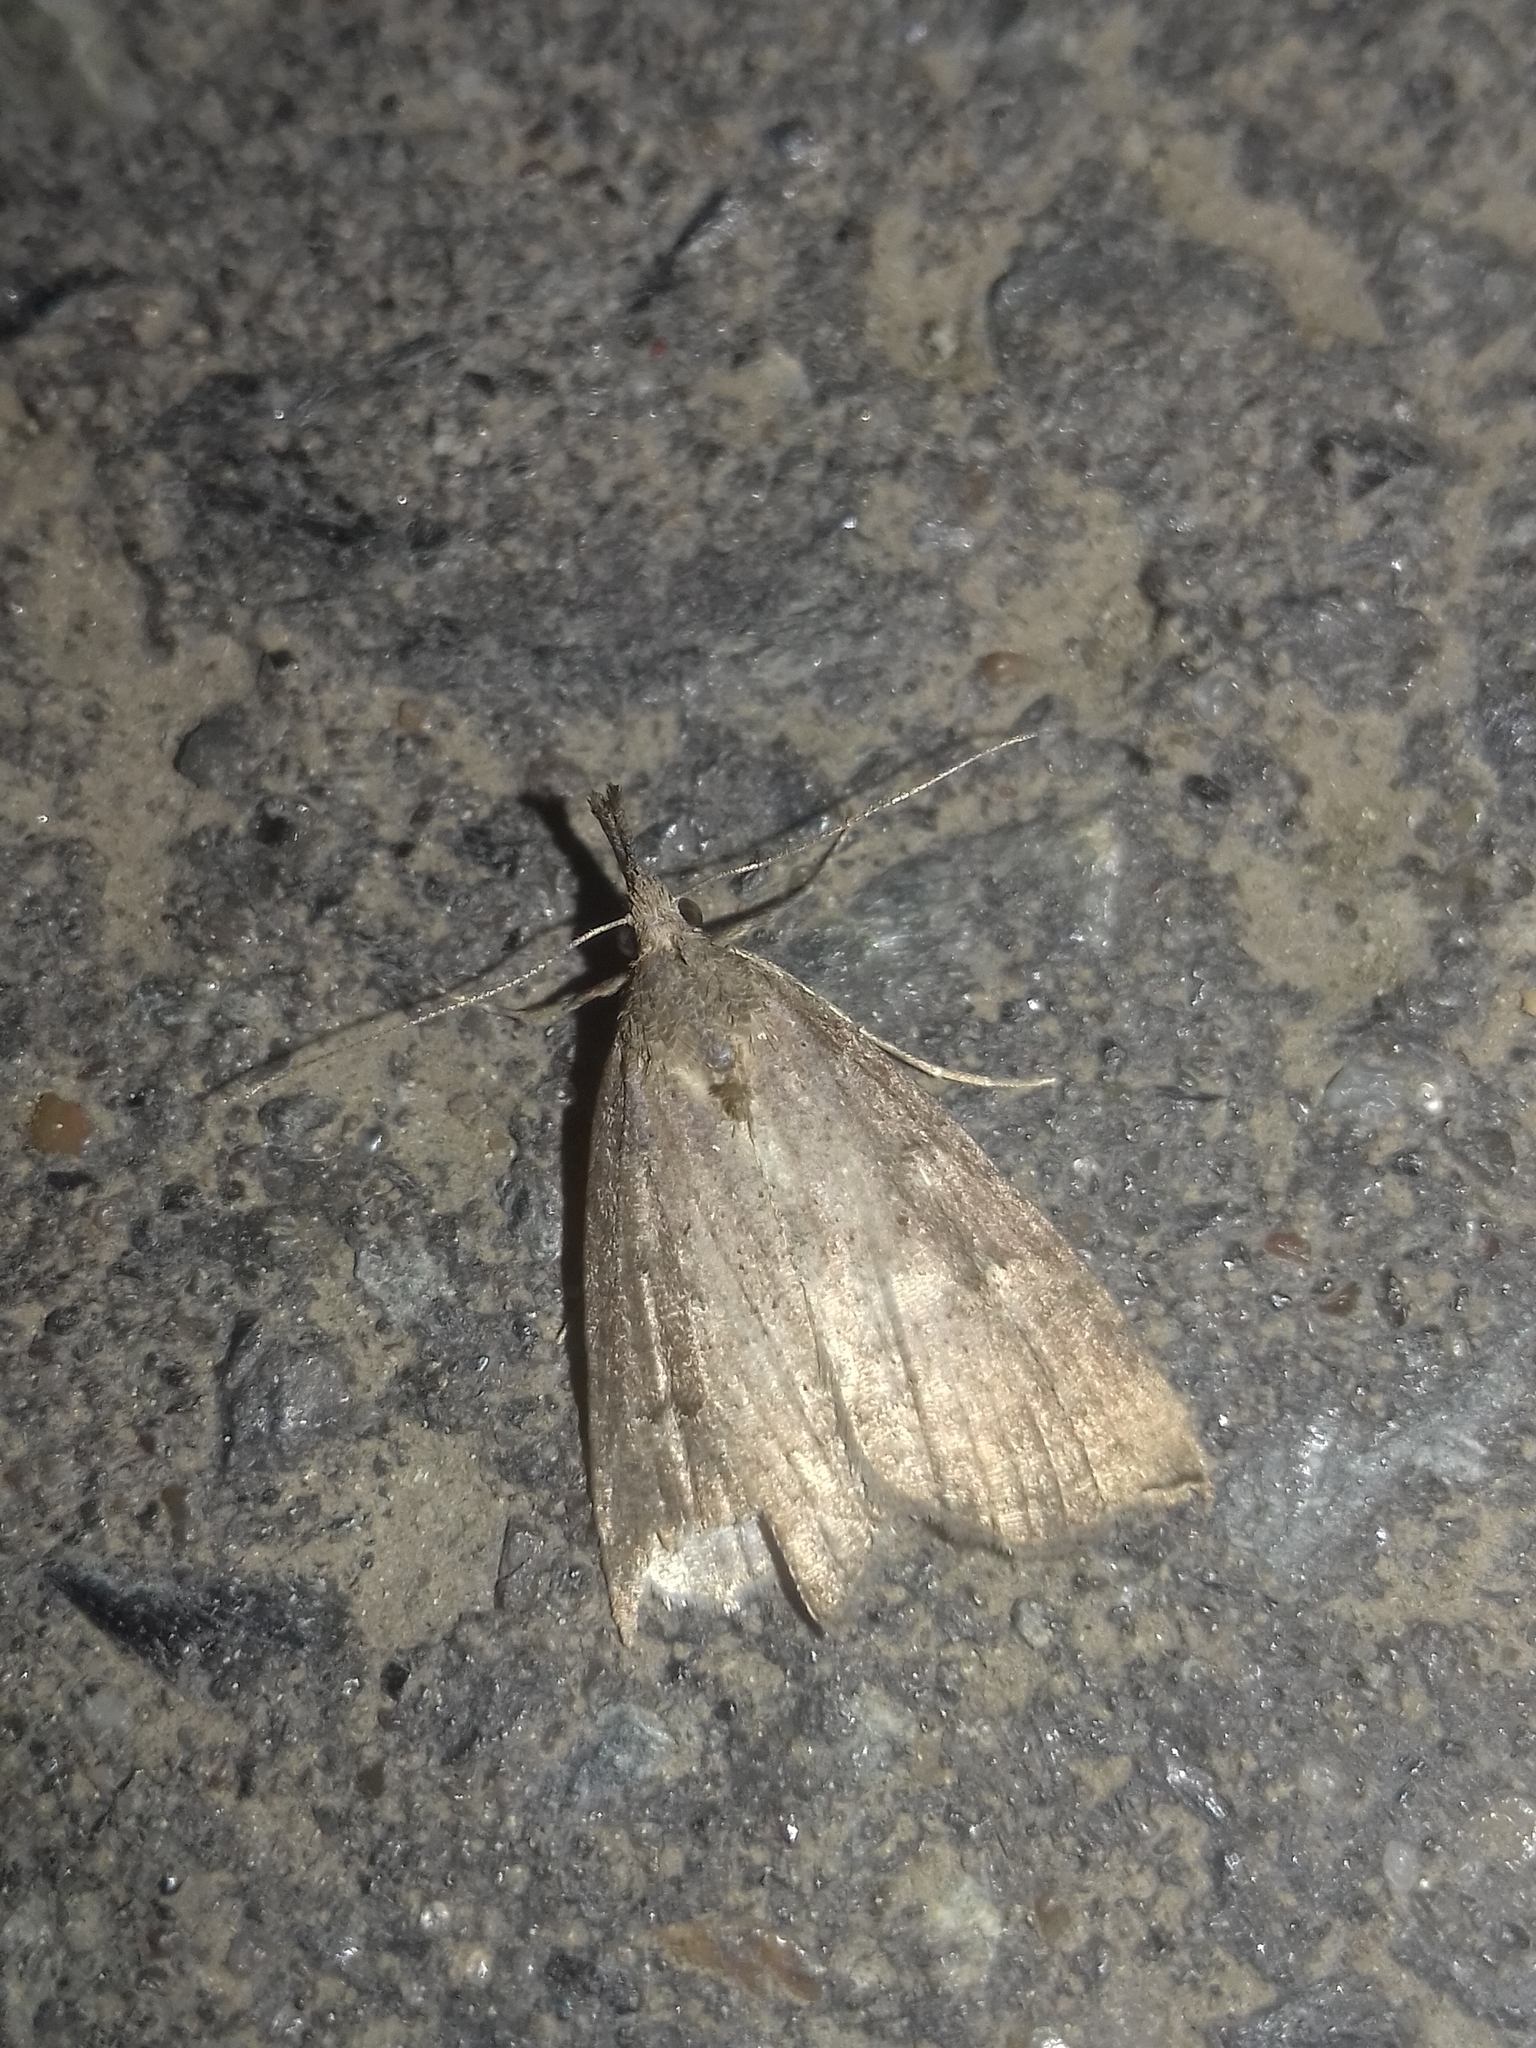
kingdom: Animalia
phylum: Arthropoda
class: Insecta
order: Lepidoptera
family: Erebidae
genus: Hypena
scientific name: Hypena rostralis
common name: Buttoned snout
